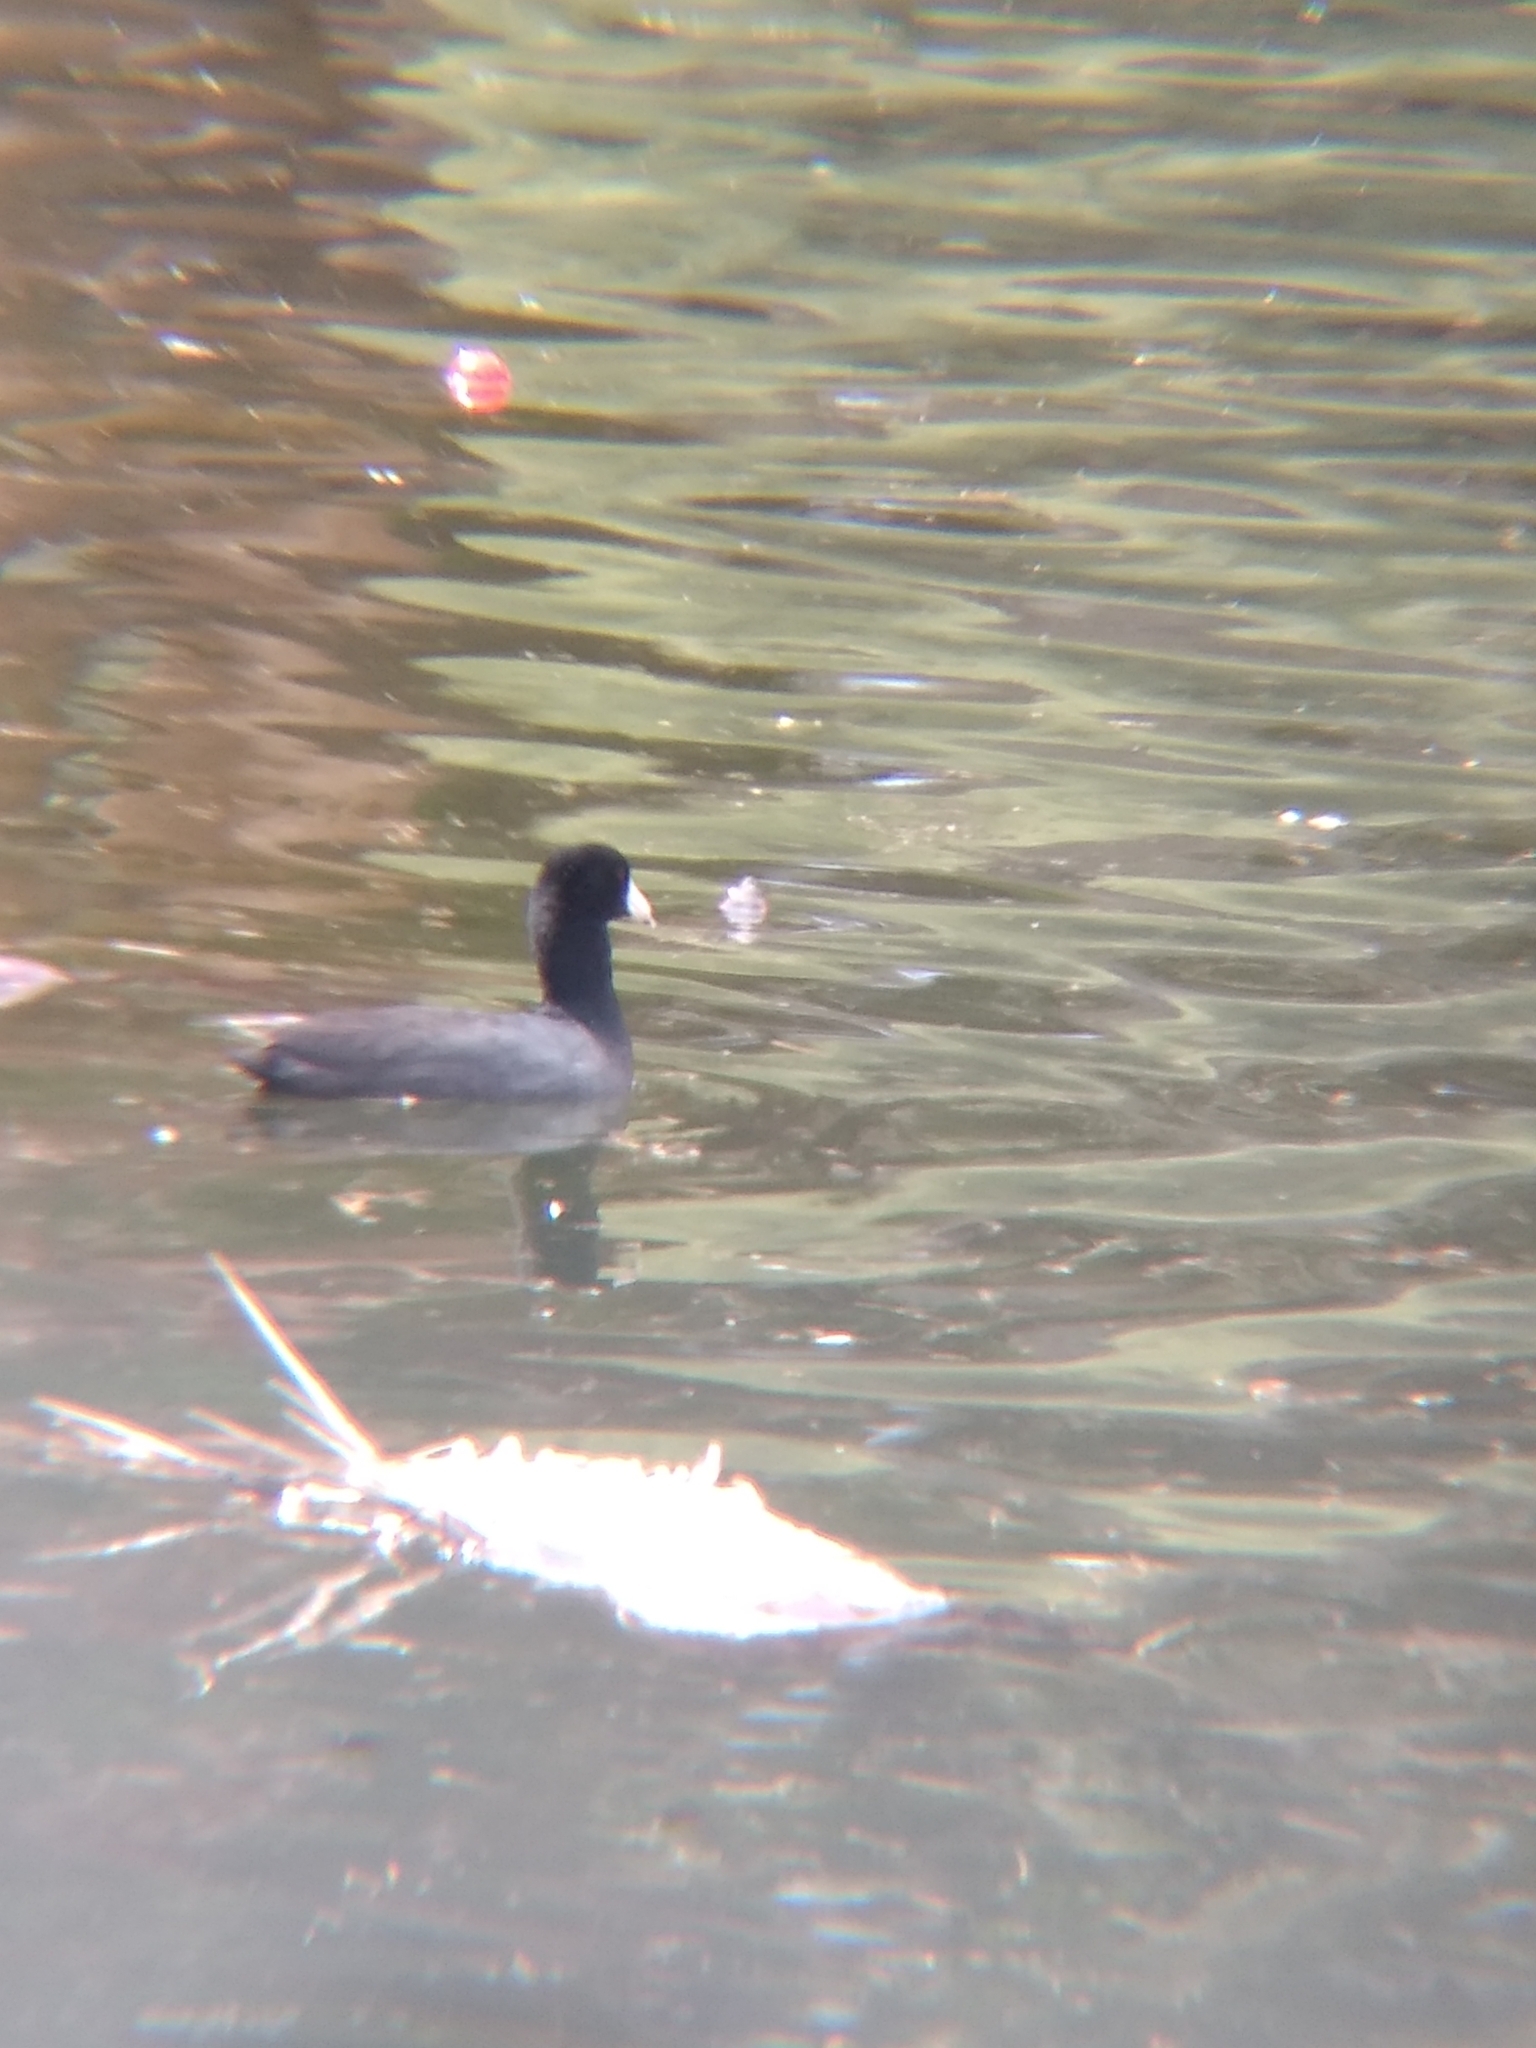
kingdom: Animalia
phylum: Chordata
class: Aves
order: Gruiformes
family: Rallidae
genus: Fulica
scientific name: Fulica americana
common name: American coot
